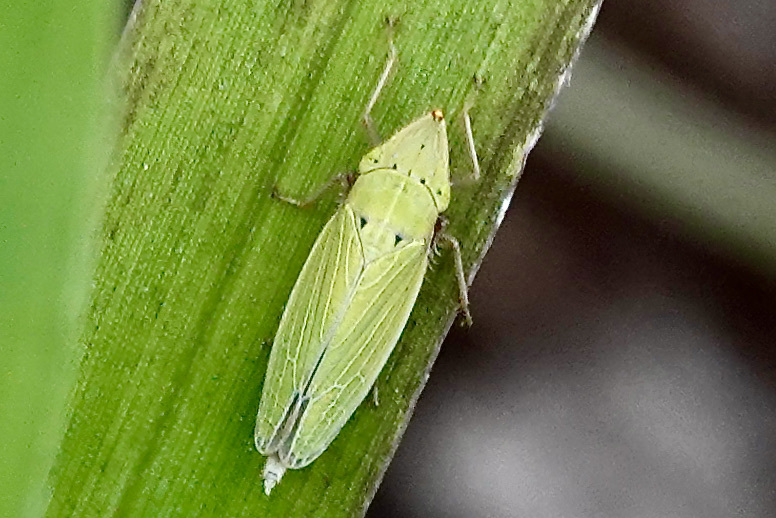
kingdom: Animalia
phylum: Arthropoda
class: Insecta
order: Hemiptera
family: Cicadellidae
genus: Draeculacephala
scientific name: Draeculacephala balli
